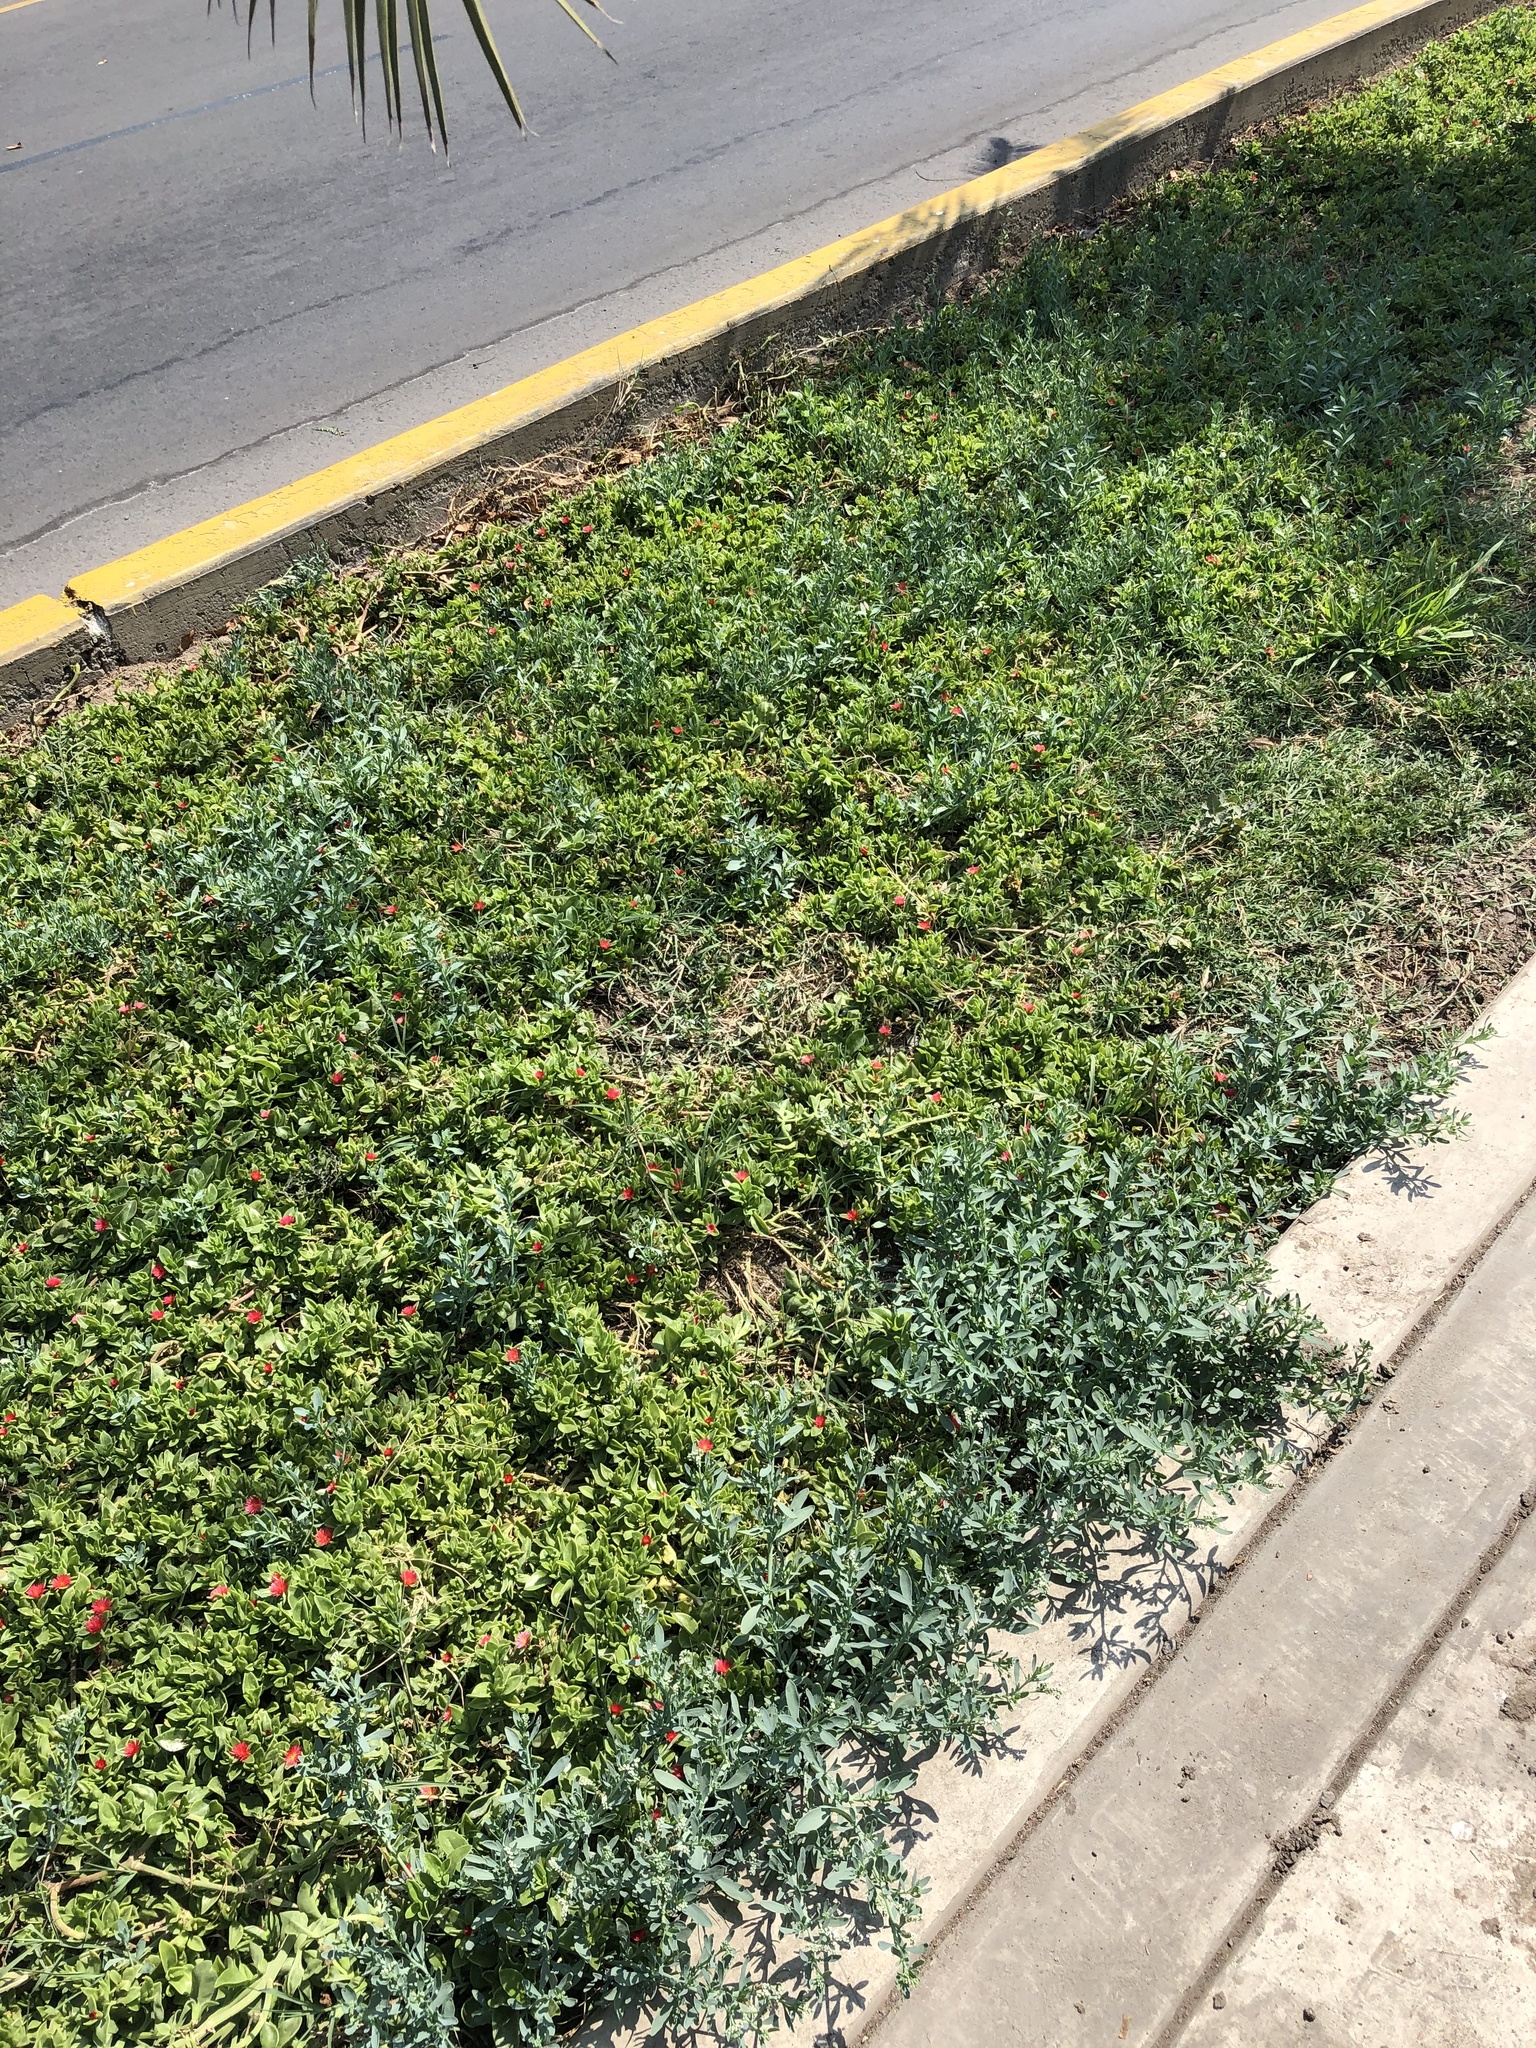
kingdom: Plantae
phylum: Tracheophyta
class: Magnoliopsida
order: Boraginales
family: Heliotropiaceae
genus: Heliotropium
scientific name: Heliotropium curassavicum
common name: Seaside heliotrope
